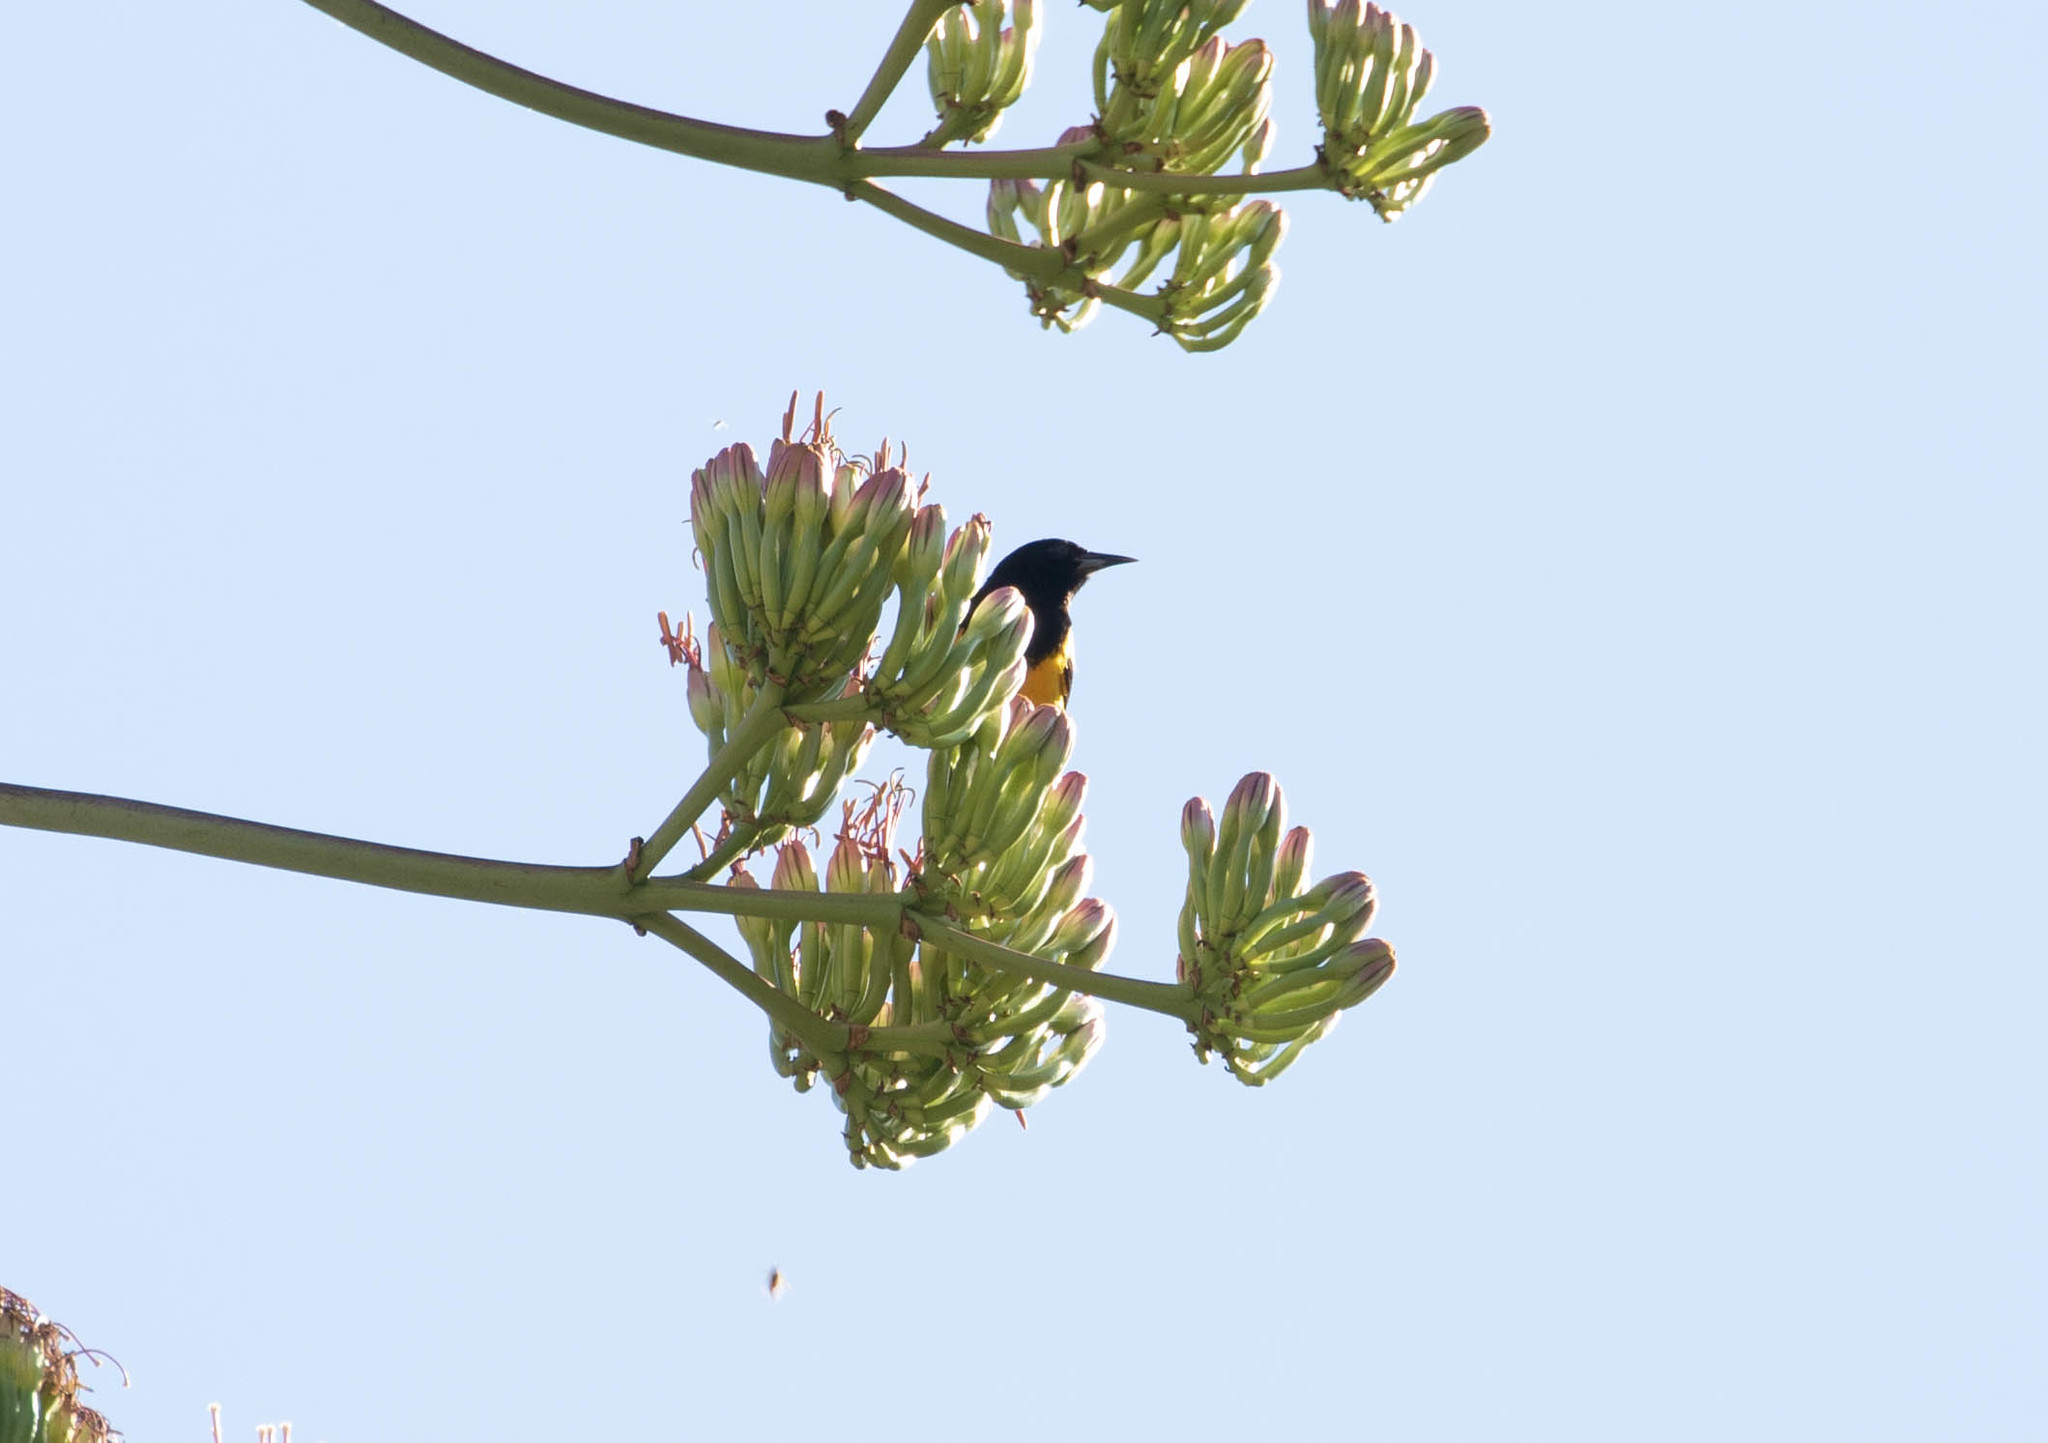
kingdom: Animalia
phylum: Chordata
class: Aves
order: Passeriformes
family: Icteridae
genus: Icterus
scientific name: Icterus parisorum
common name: Scott's oriole
